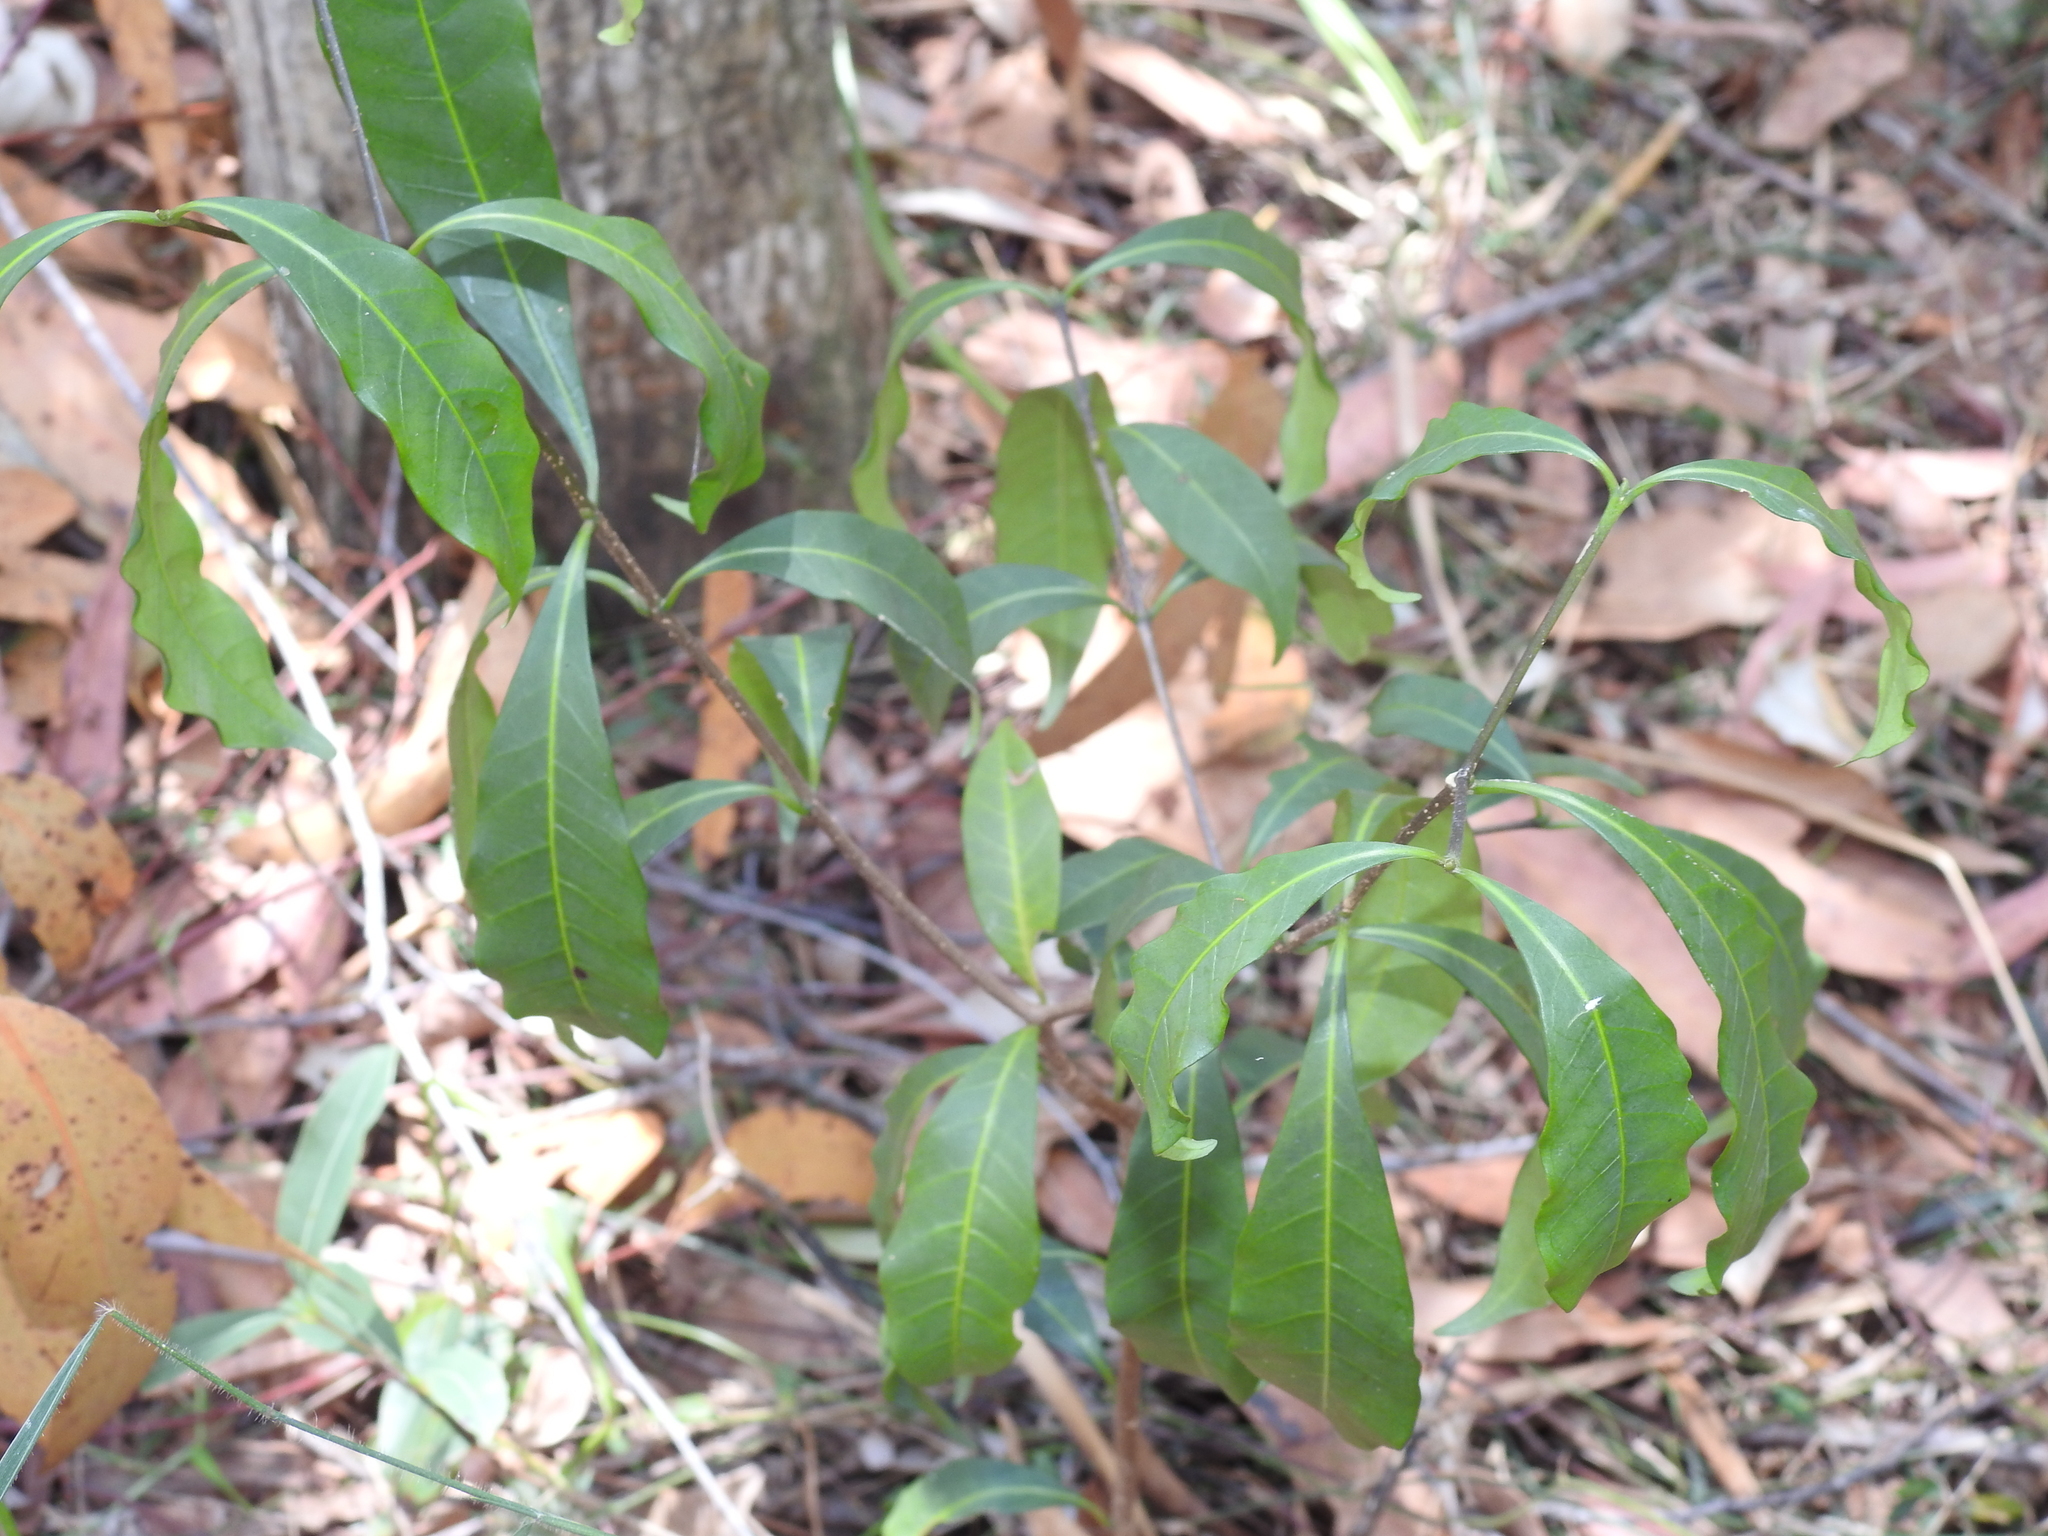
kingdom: Plantae
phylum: Tracheophyta
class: Magnoliopsida
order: Gentianales
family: Apocynaceae
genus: Tabernaemontana
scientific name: Tabernaemontana pandacaqui
